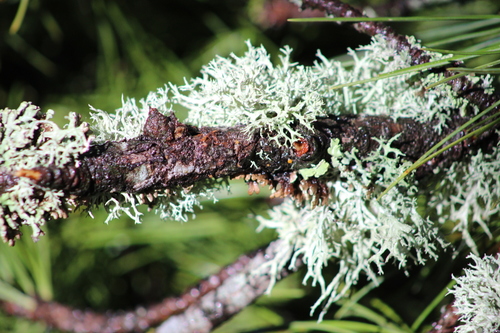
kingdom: Fungi
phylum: Ascomycota
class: Lecanoromycetes
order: Lecanorales
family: Parmeliaceae
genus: Evernia
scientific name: Evernia
